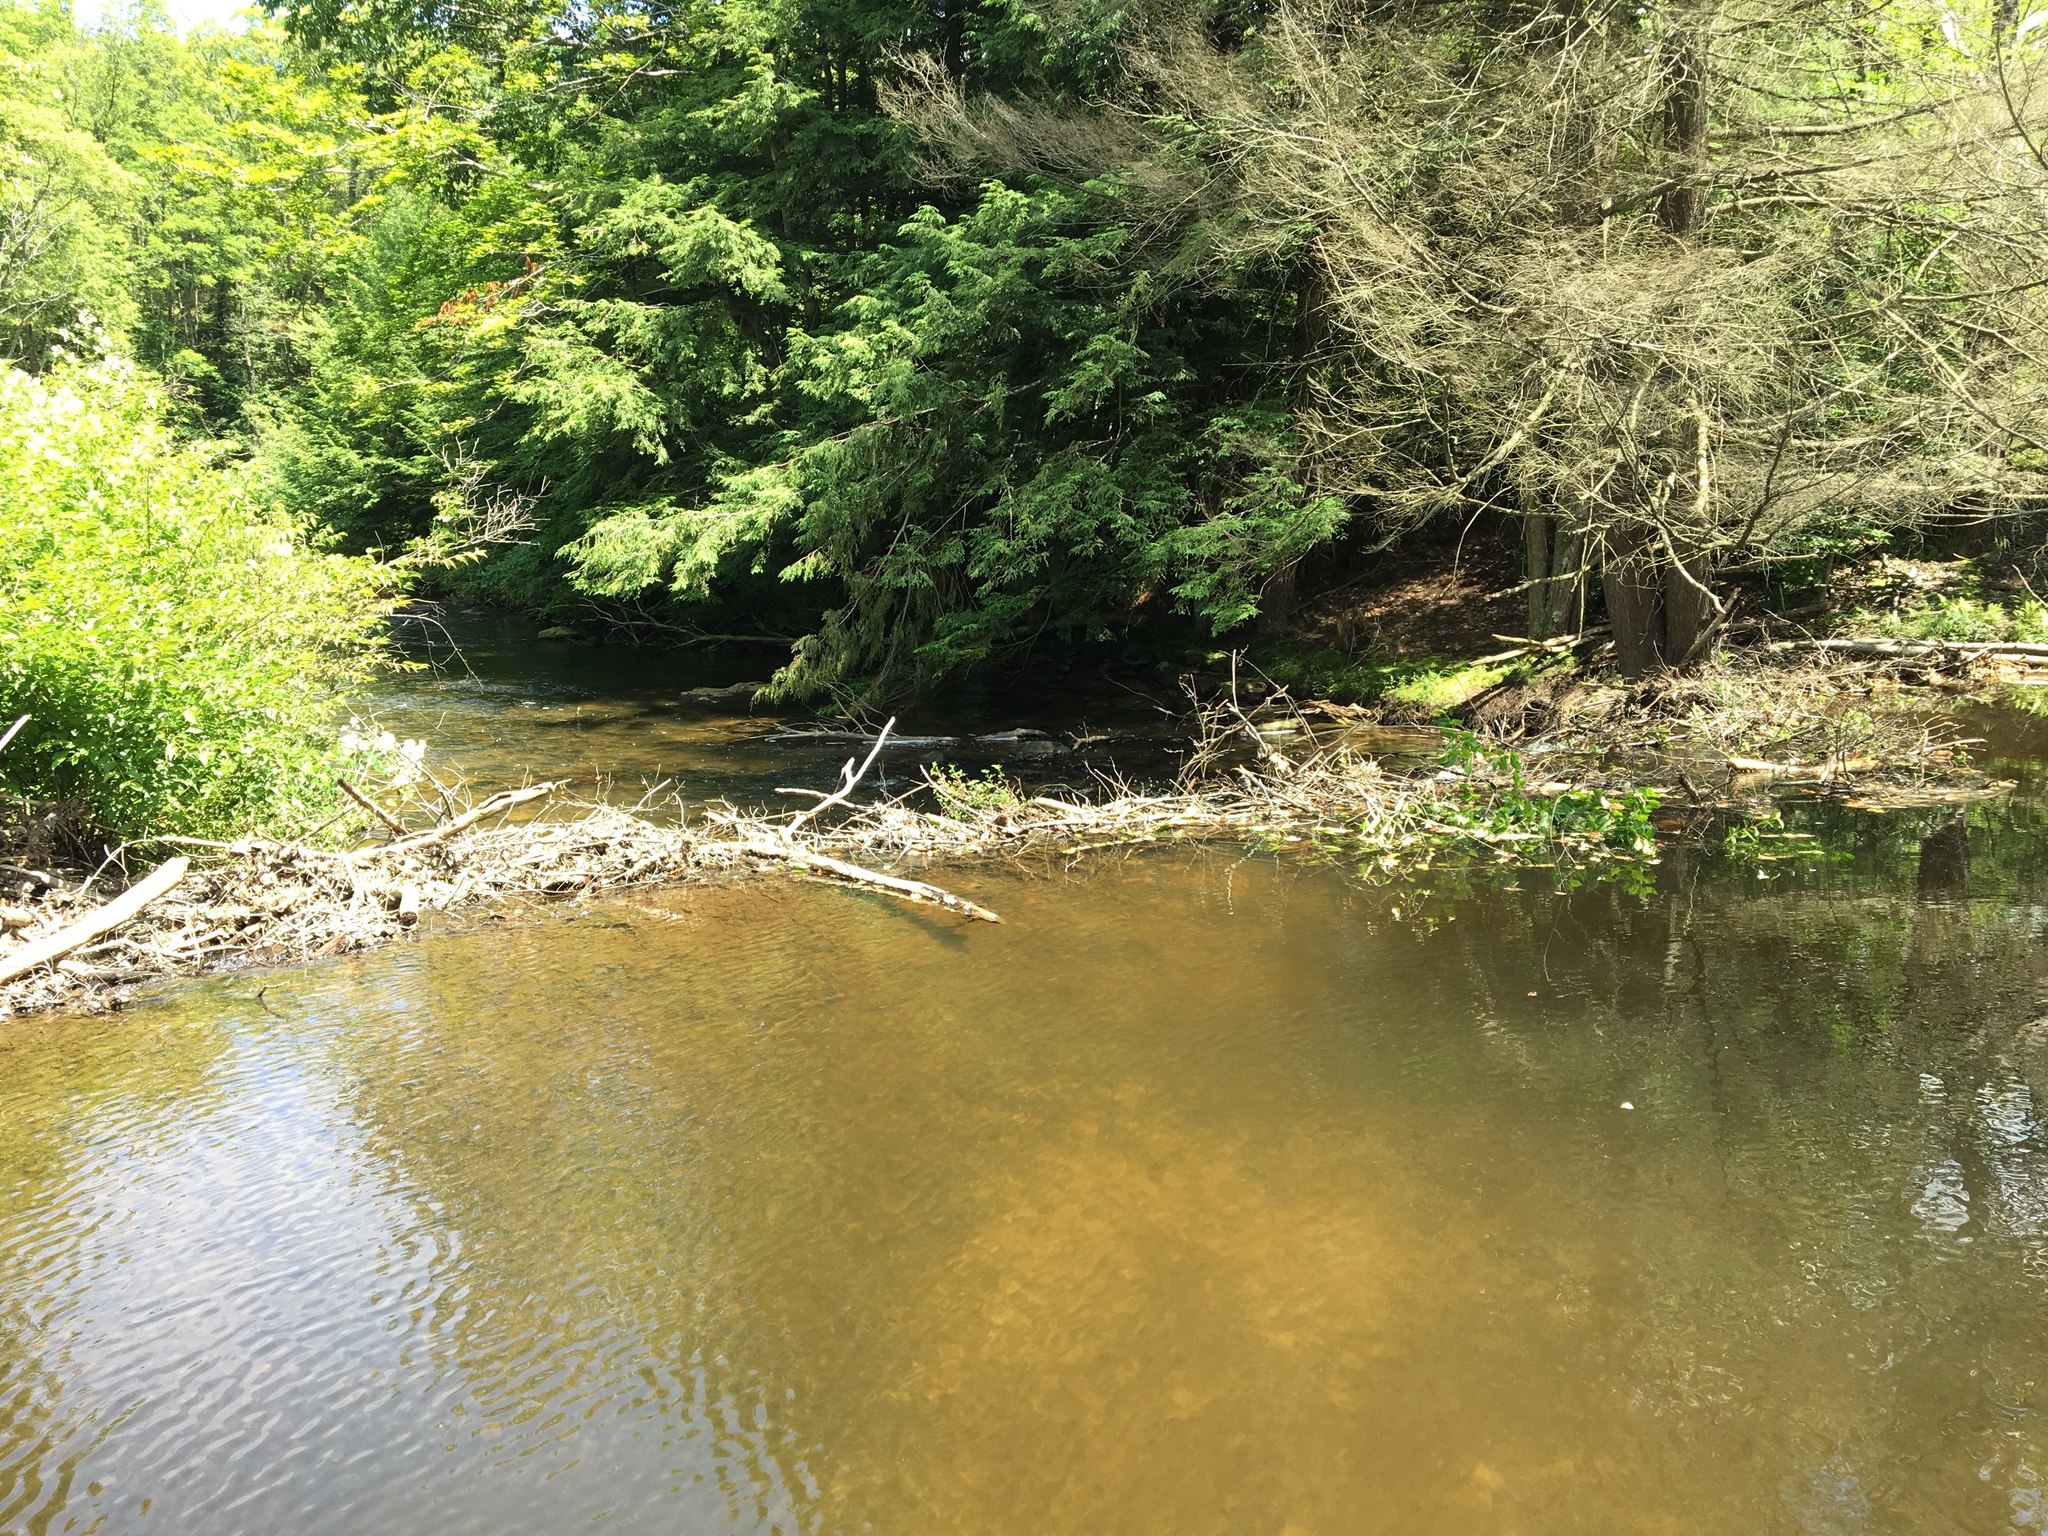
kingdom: Animalia
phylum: Chordata
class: Mammalia
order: Rodentia
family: Castoridae
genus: Castor
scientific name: Castor canadensis
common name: American beaver
